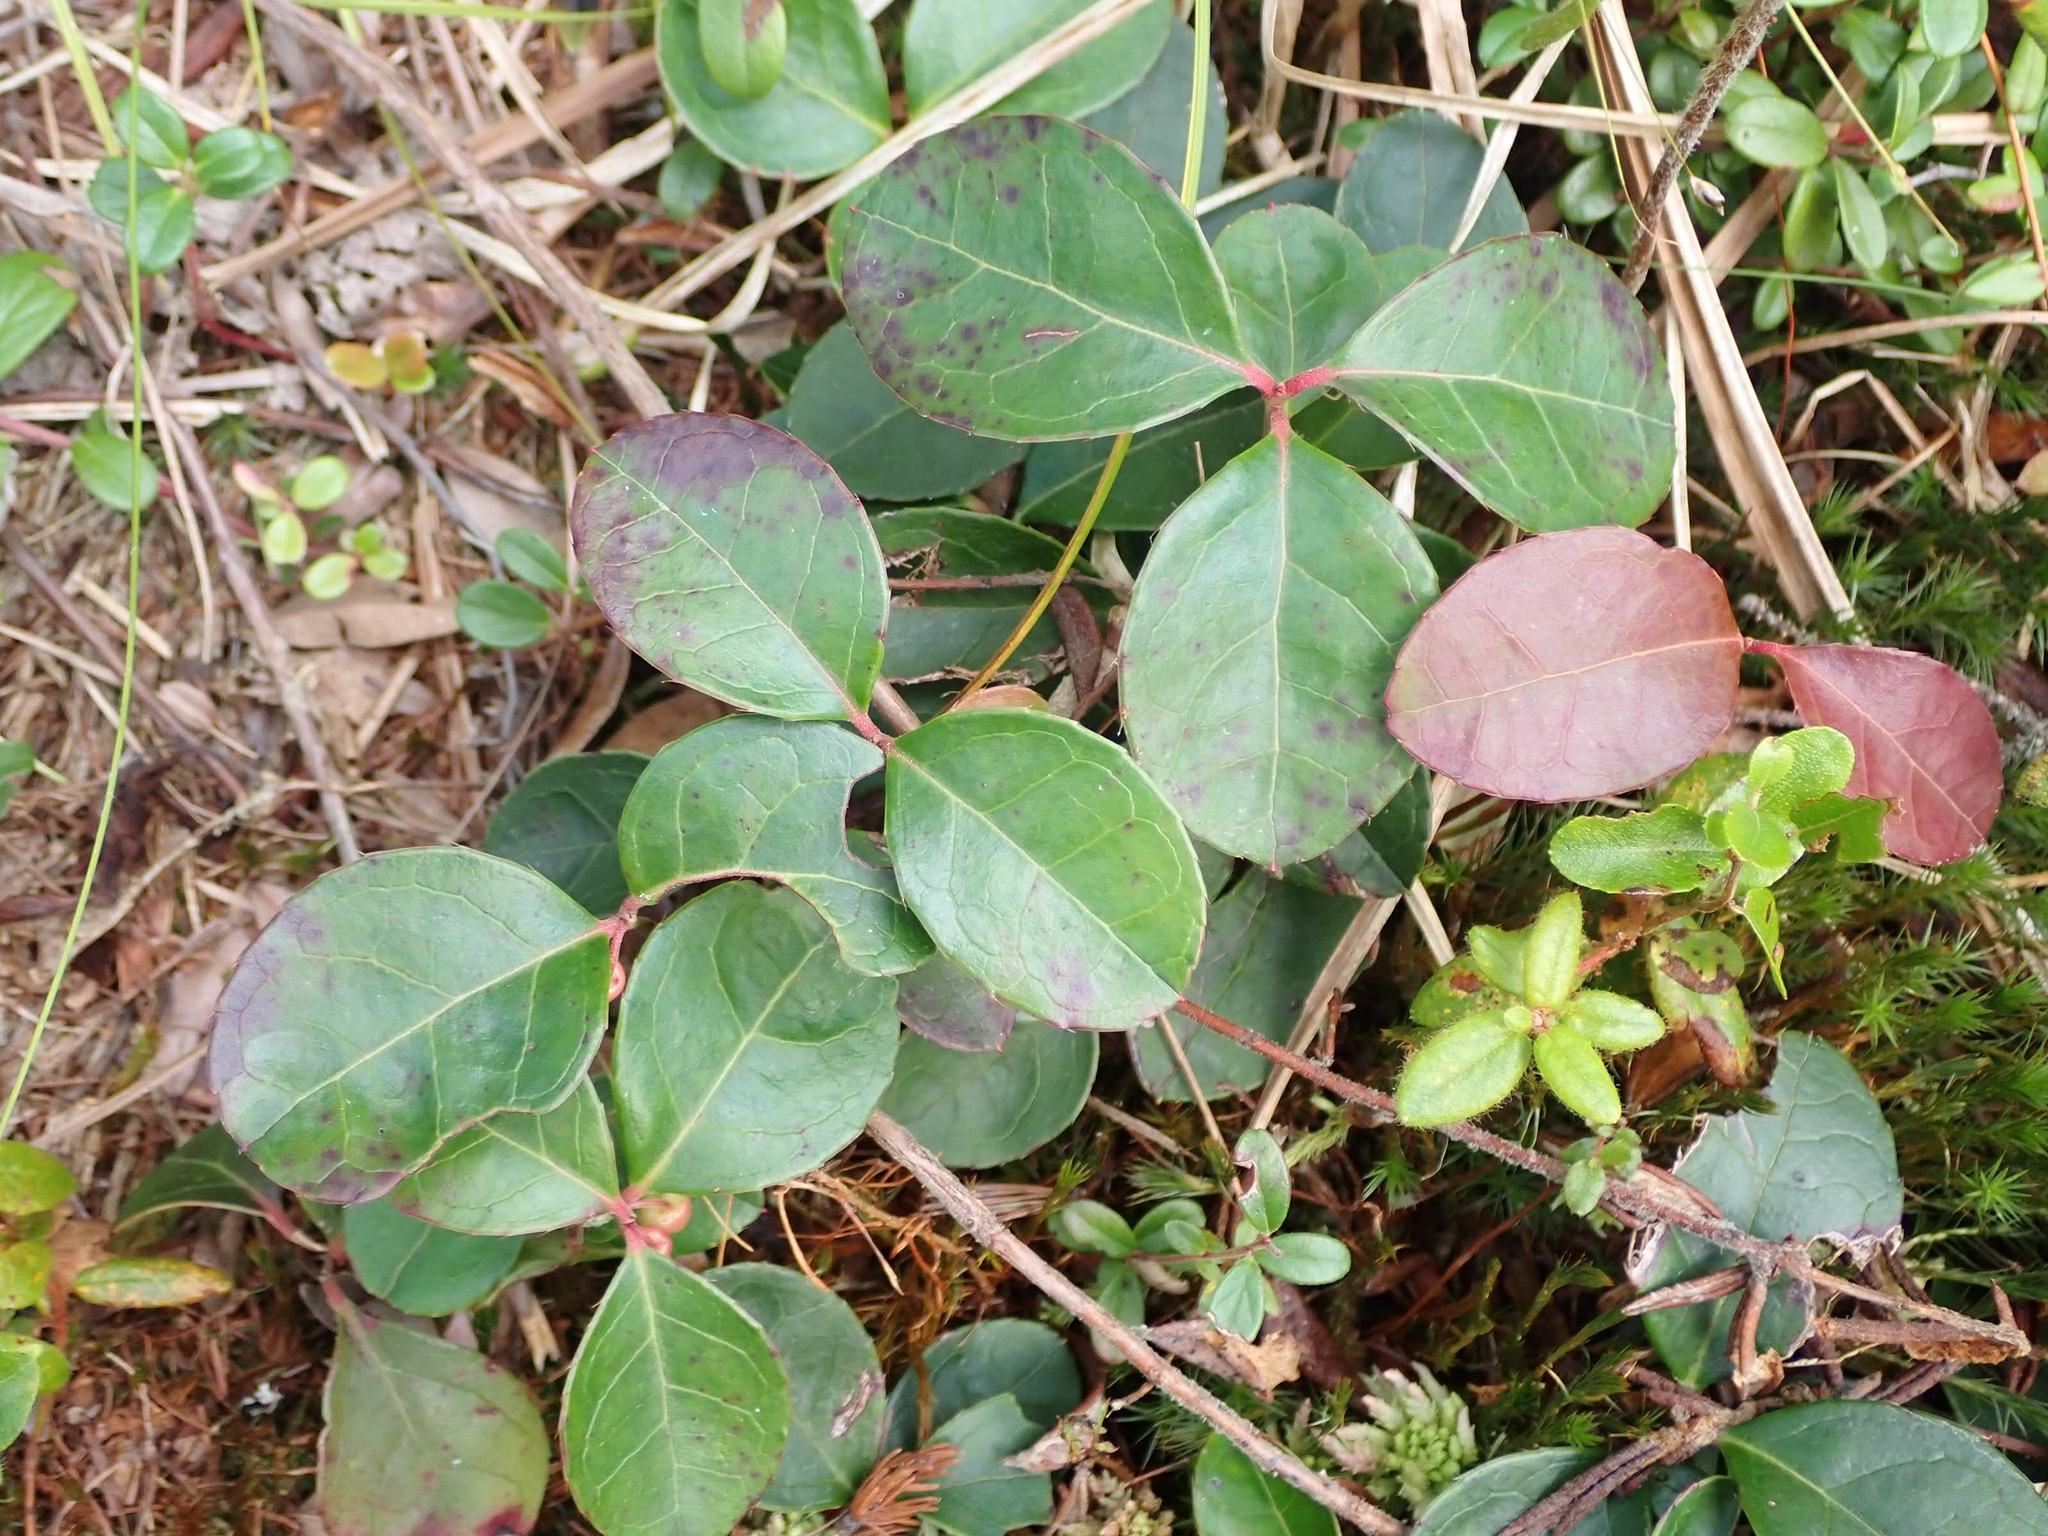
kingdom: Plantae
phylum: Tracheophyta
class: Magnoliopsida
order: Ericales
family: Ericaceae
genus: Gaultheria
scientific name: Gaultheria procumbens
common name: Checkerberry
